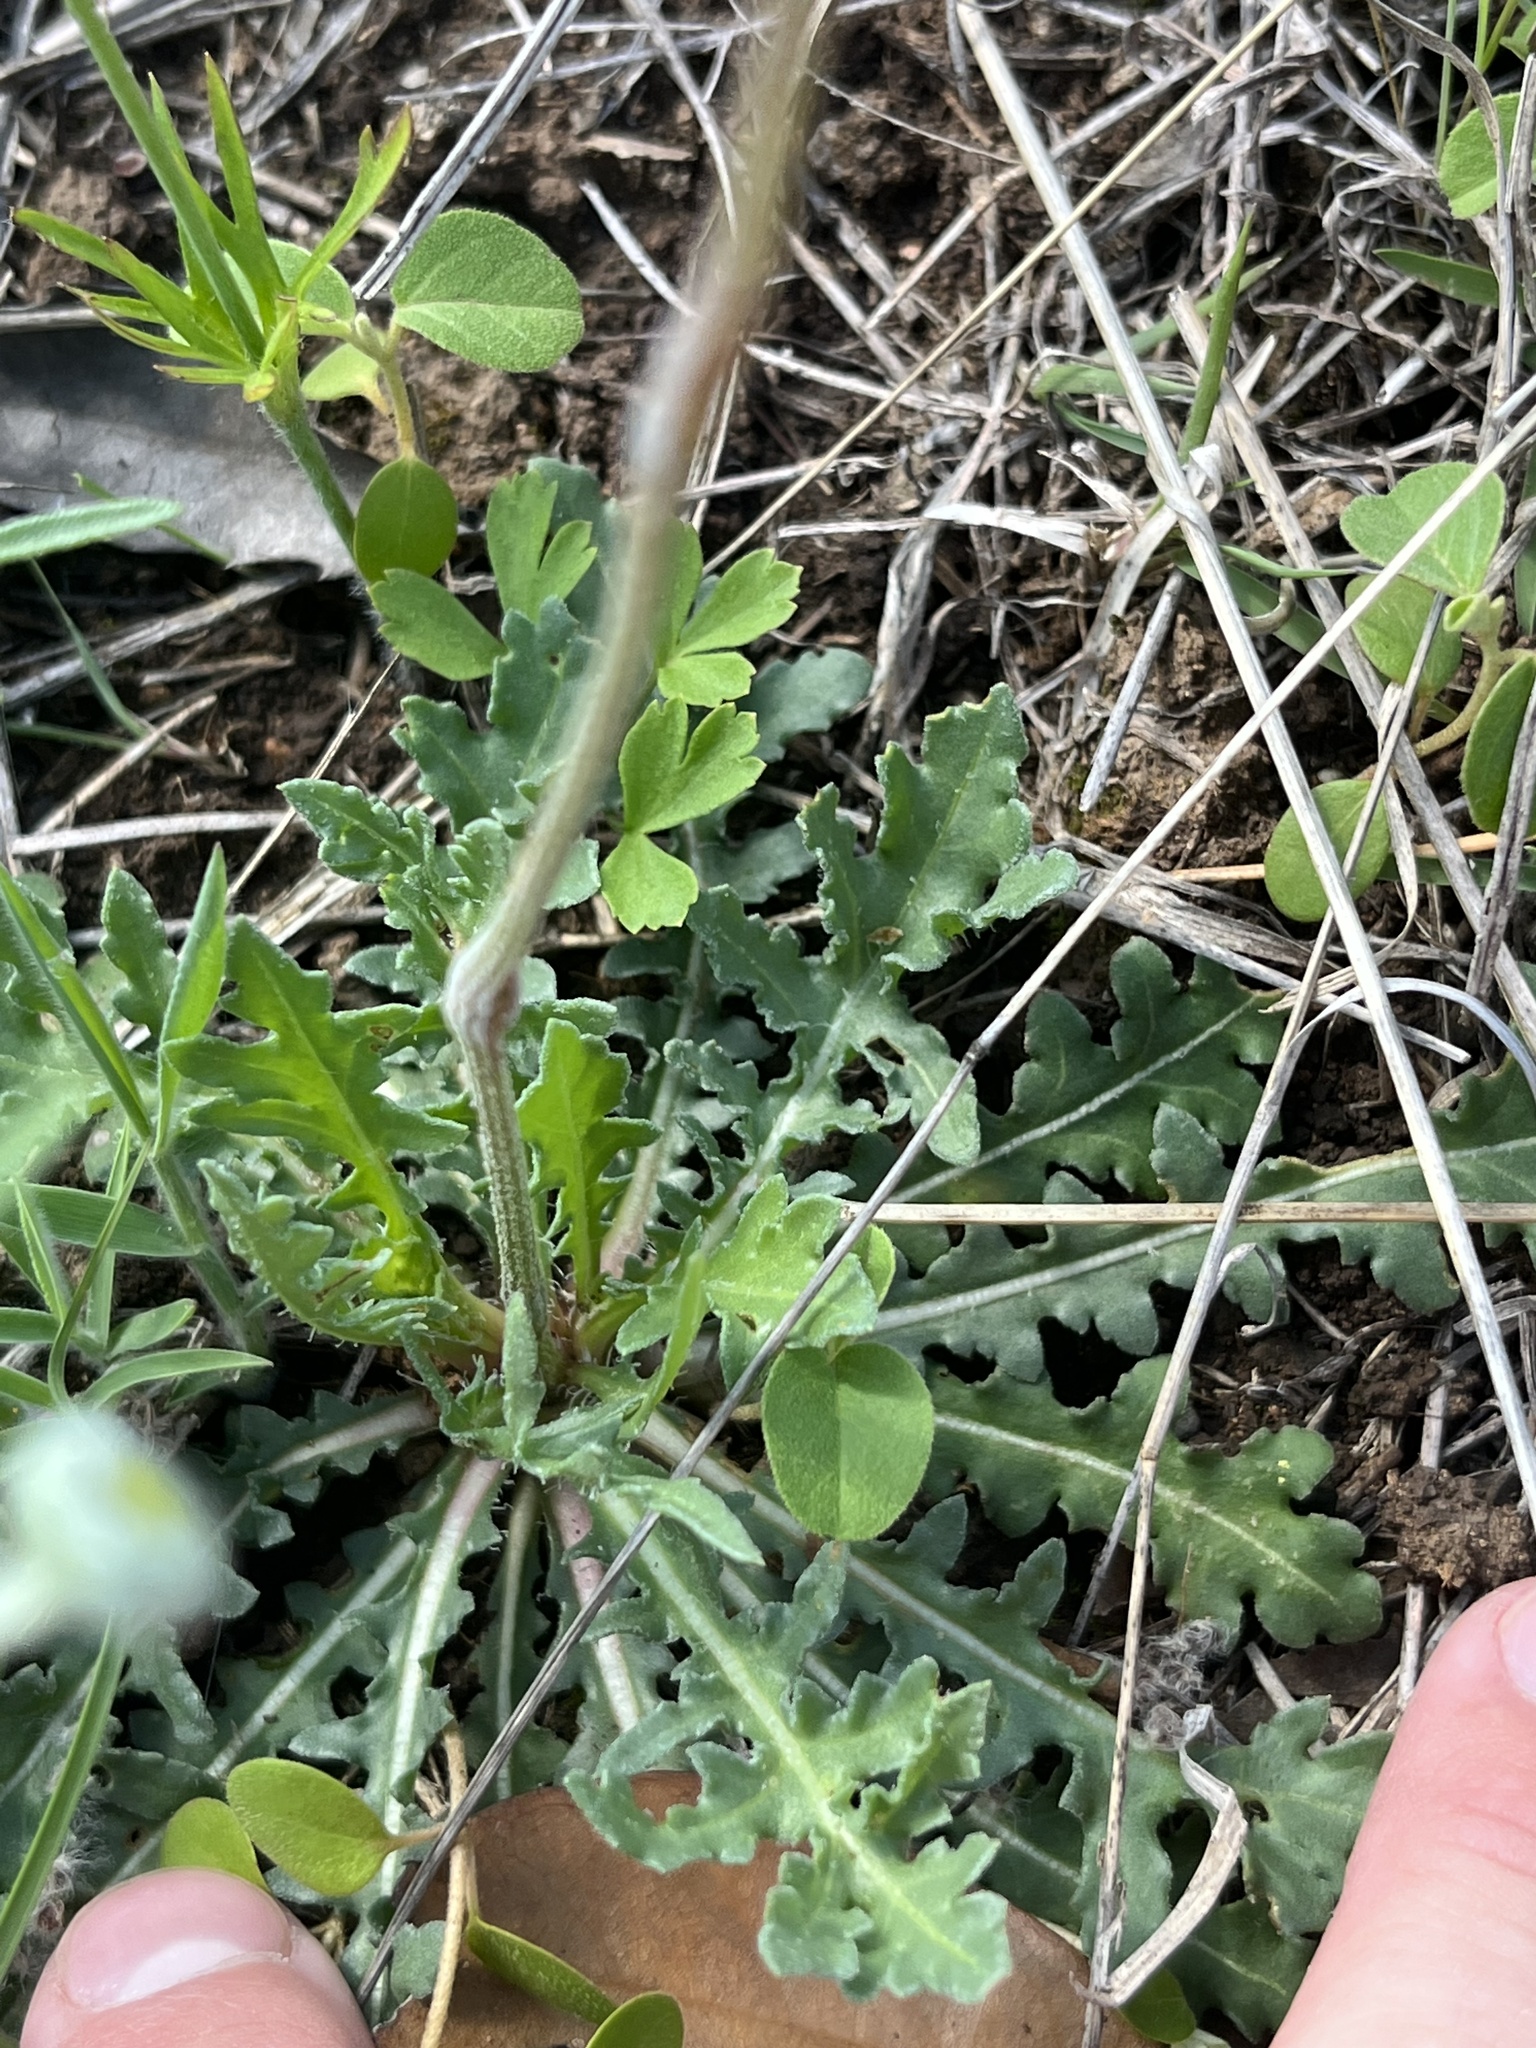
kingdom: Plantae
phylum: Tracheophyta
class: Magnoliopsida
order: Asterales
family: Asteraceae
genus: Gaillardia
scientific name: Gaillardia suavis
